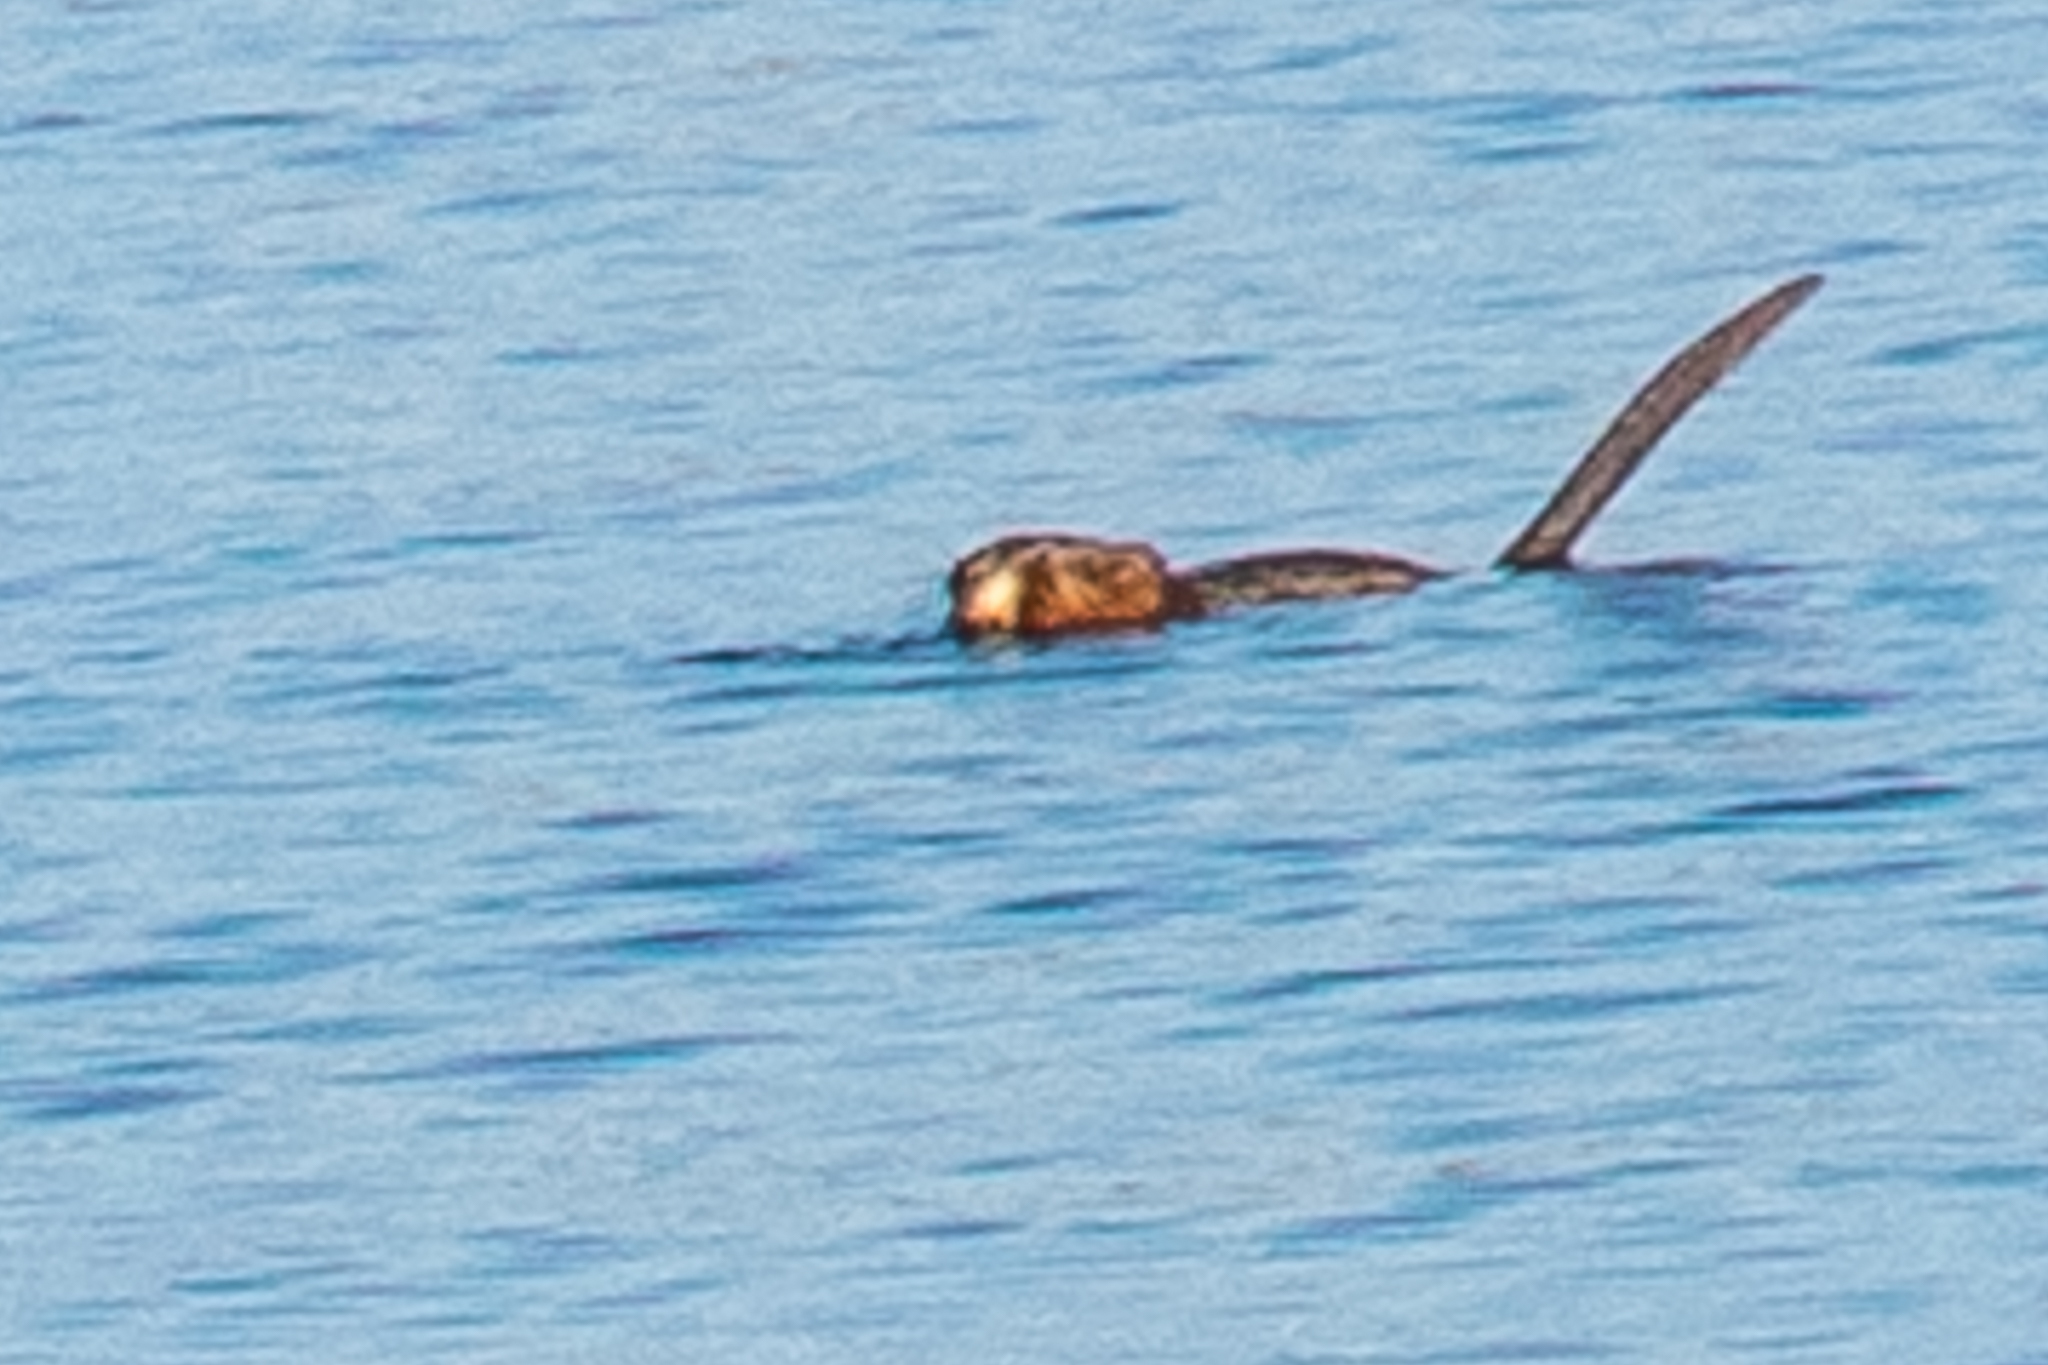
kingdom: Animalia
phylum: Chordata
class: Mammalia
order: Rodentia
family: Cricetidae
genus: Ondatra
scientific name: Ondatra zibethicus
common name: Muskrat
